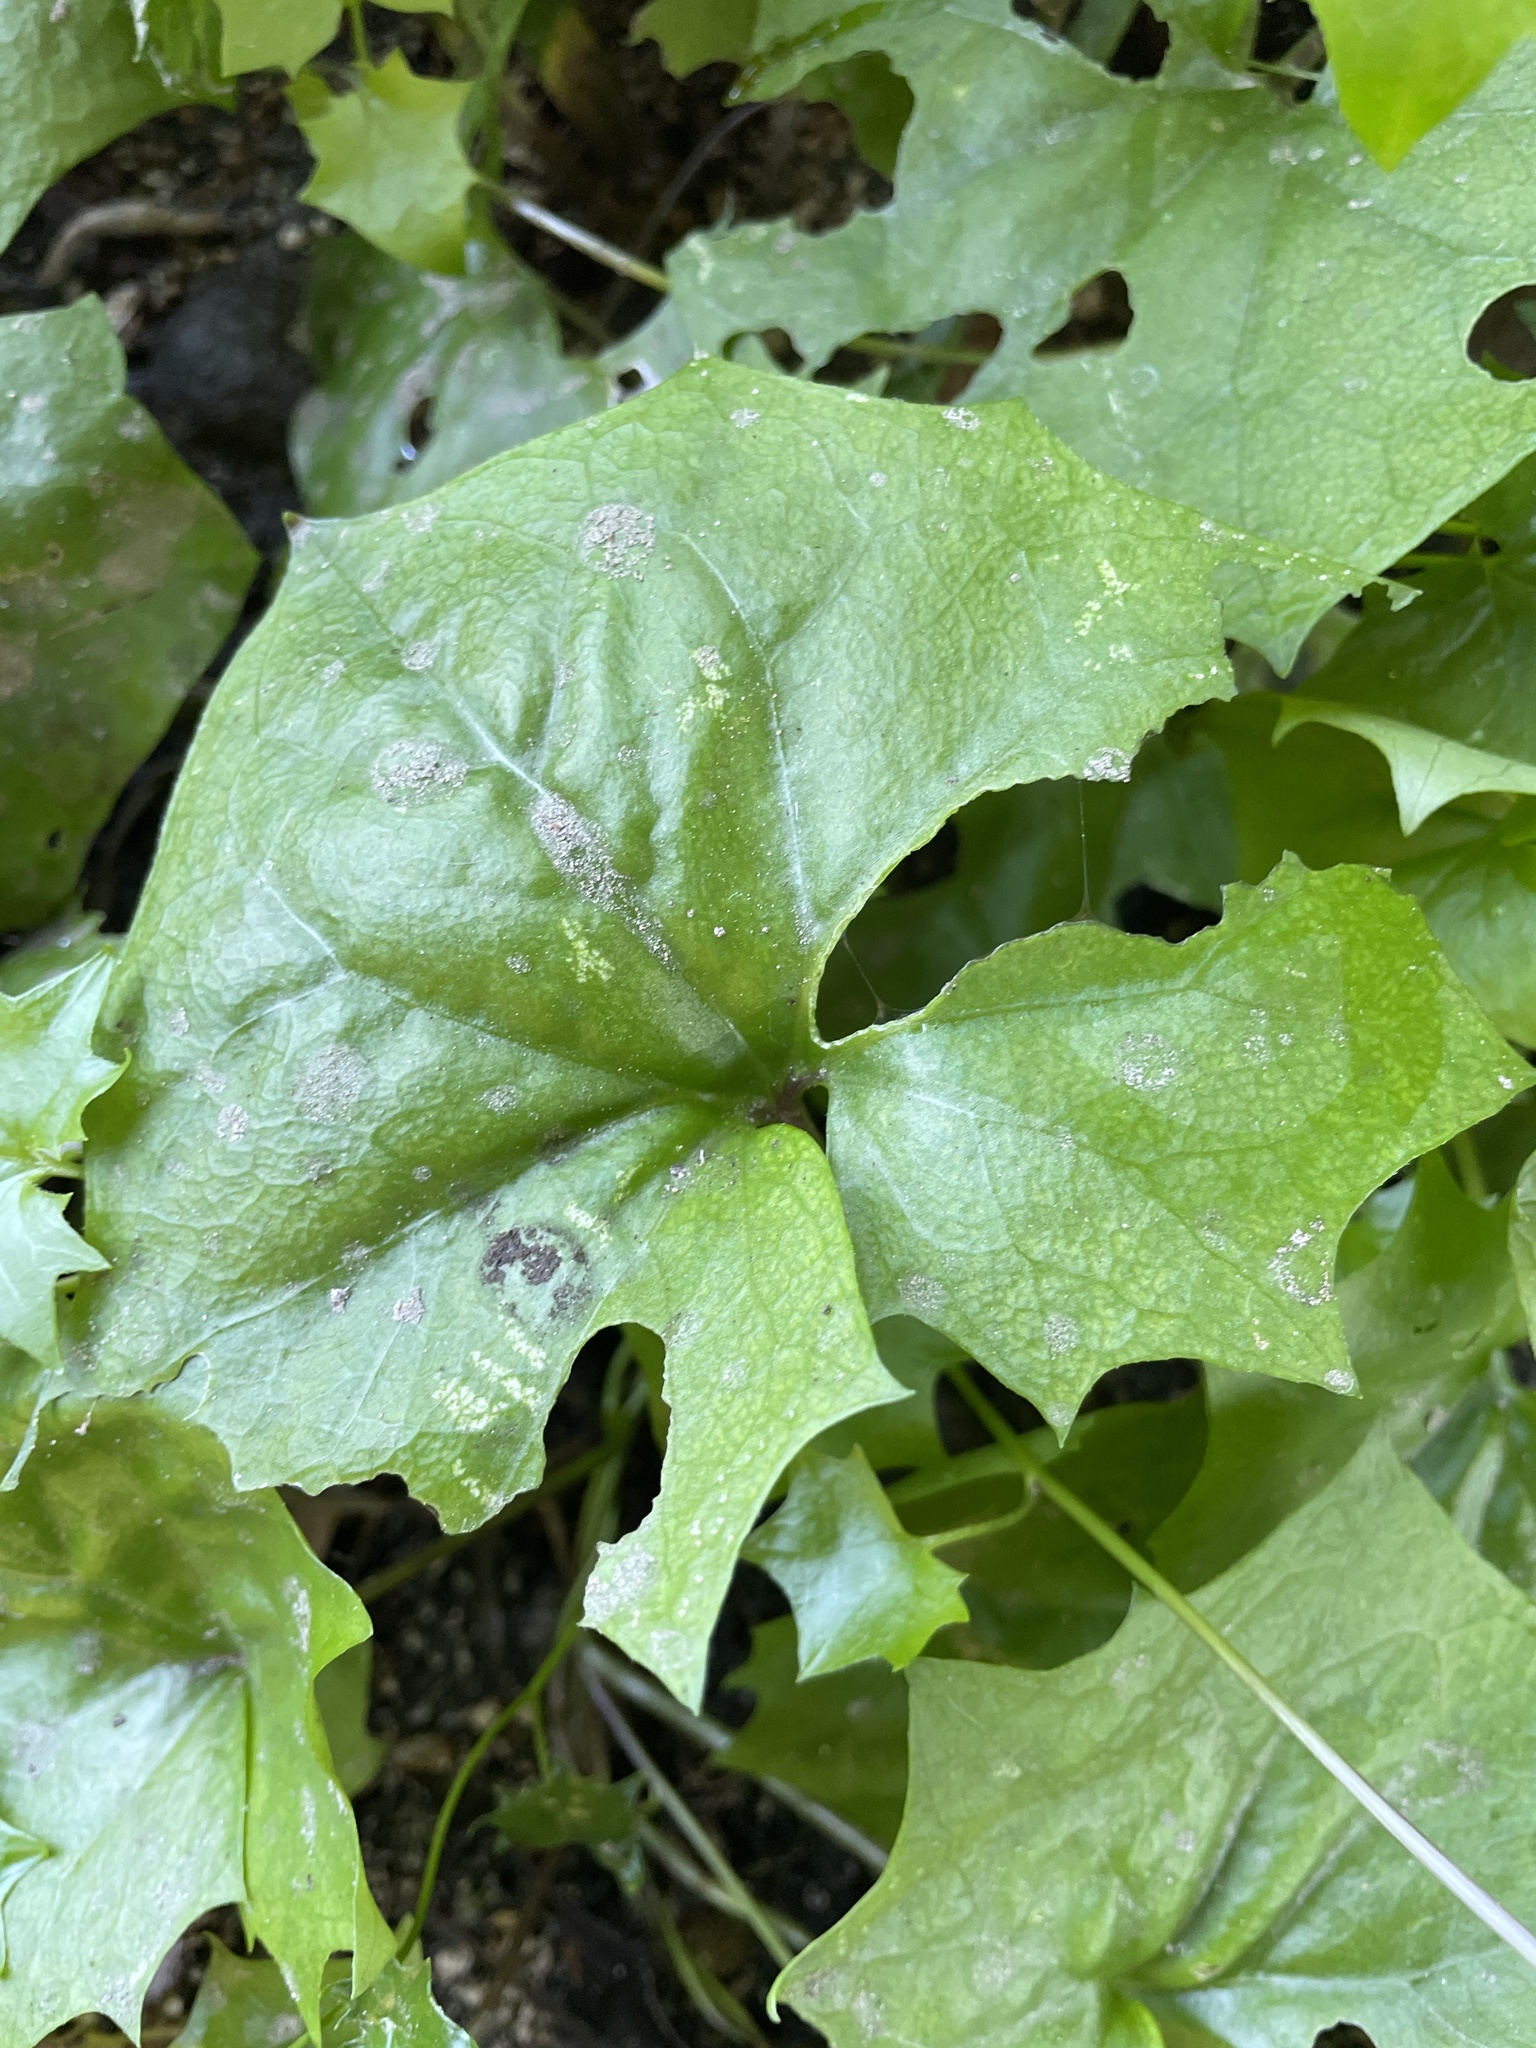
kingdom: Plantae
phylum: Tracheophyta
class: Magnoliopsida
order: Asterales
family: Asteraceae
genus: Delairea
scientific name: Delairea odorata
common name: Cape-ivy
